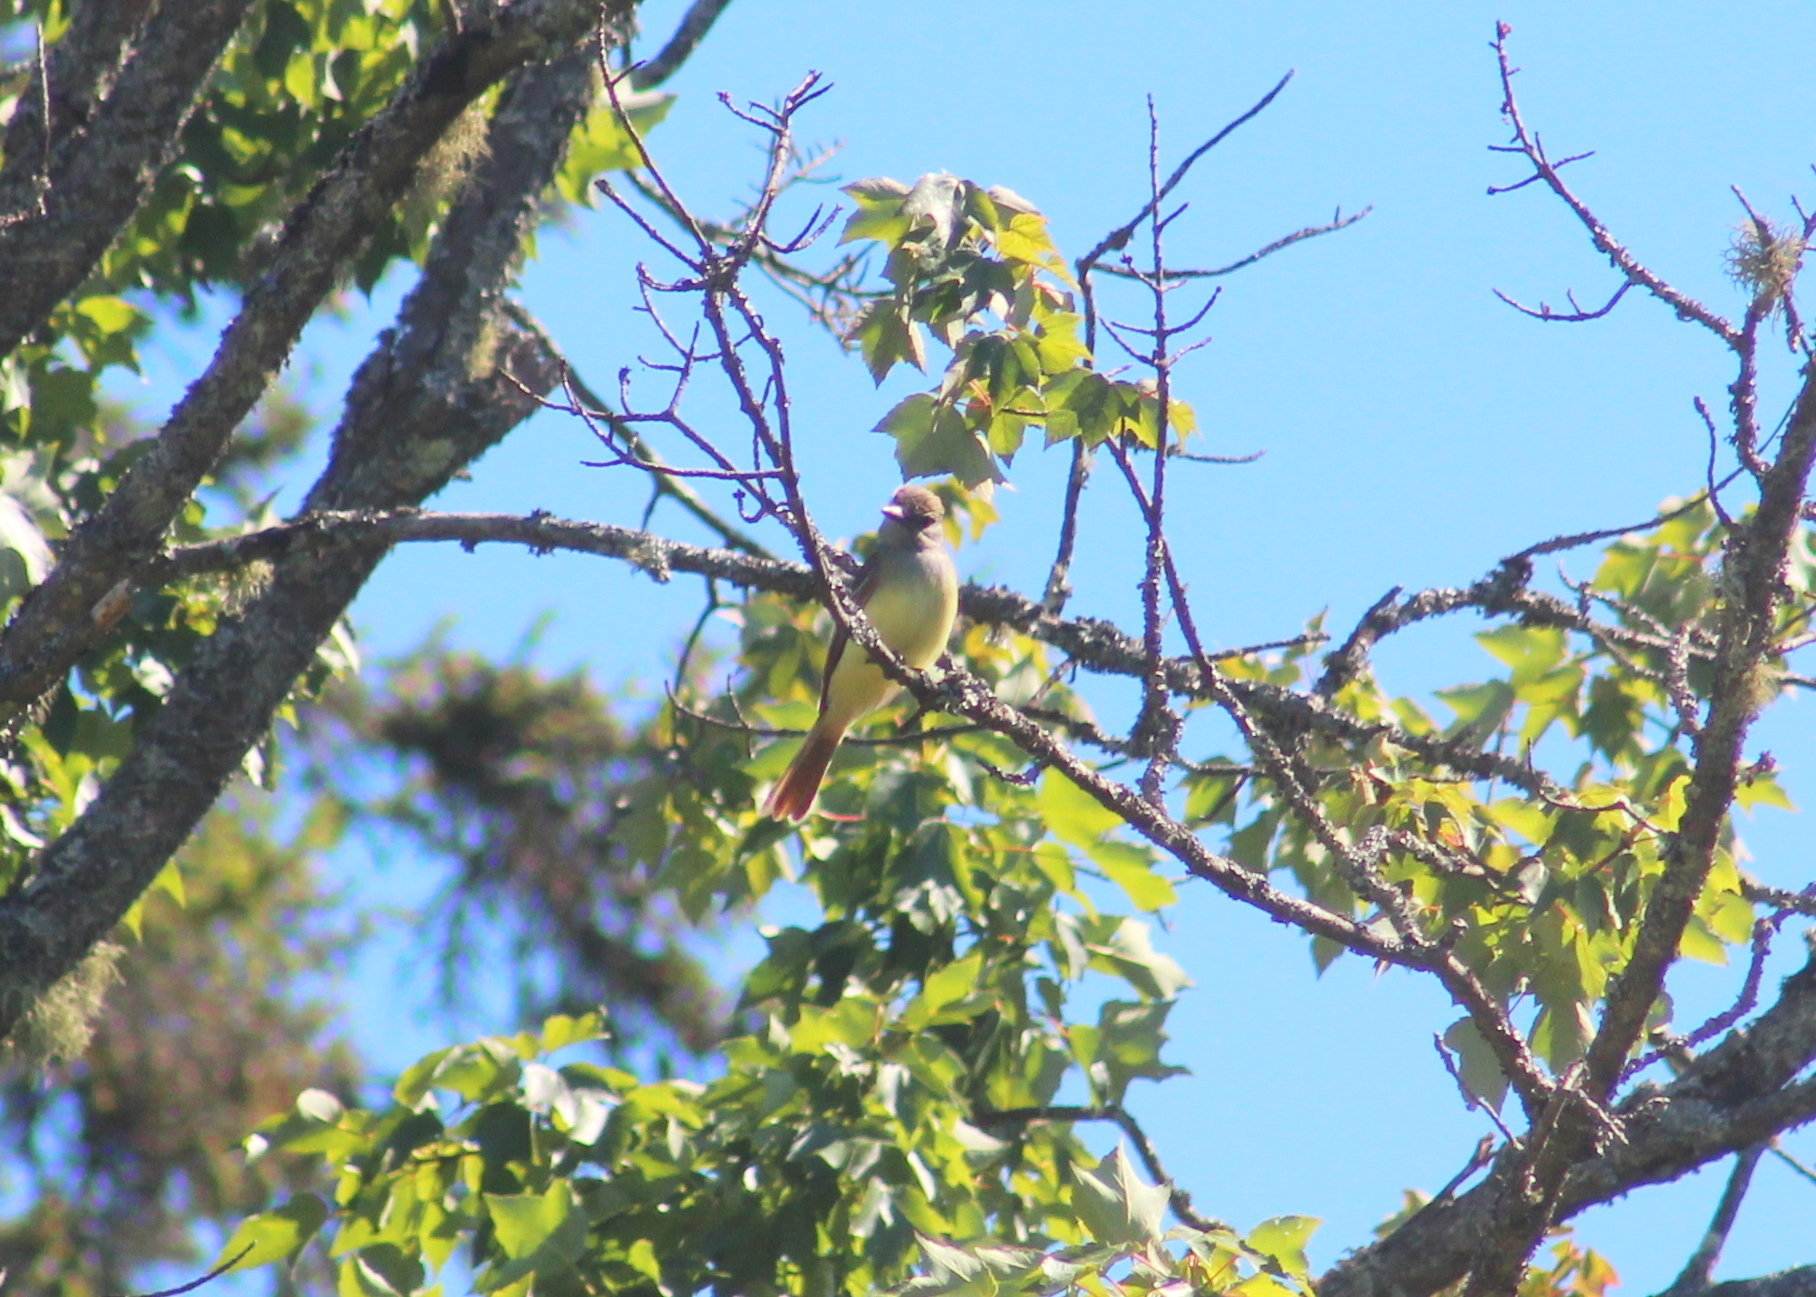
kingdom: Animalia
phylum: Chordata
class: Aves
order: Passeriformes
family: Tyrannidae
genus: Myiarchus
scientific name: Myiarchus crinitus
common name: Great crested flycatcher
